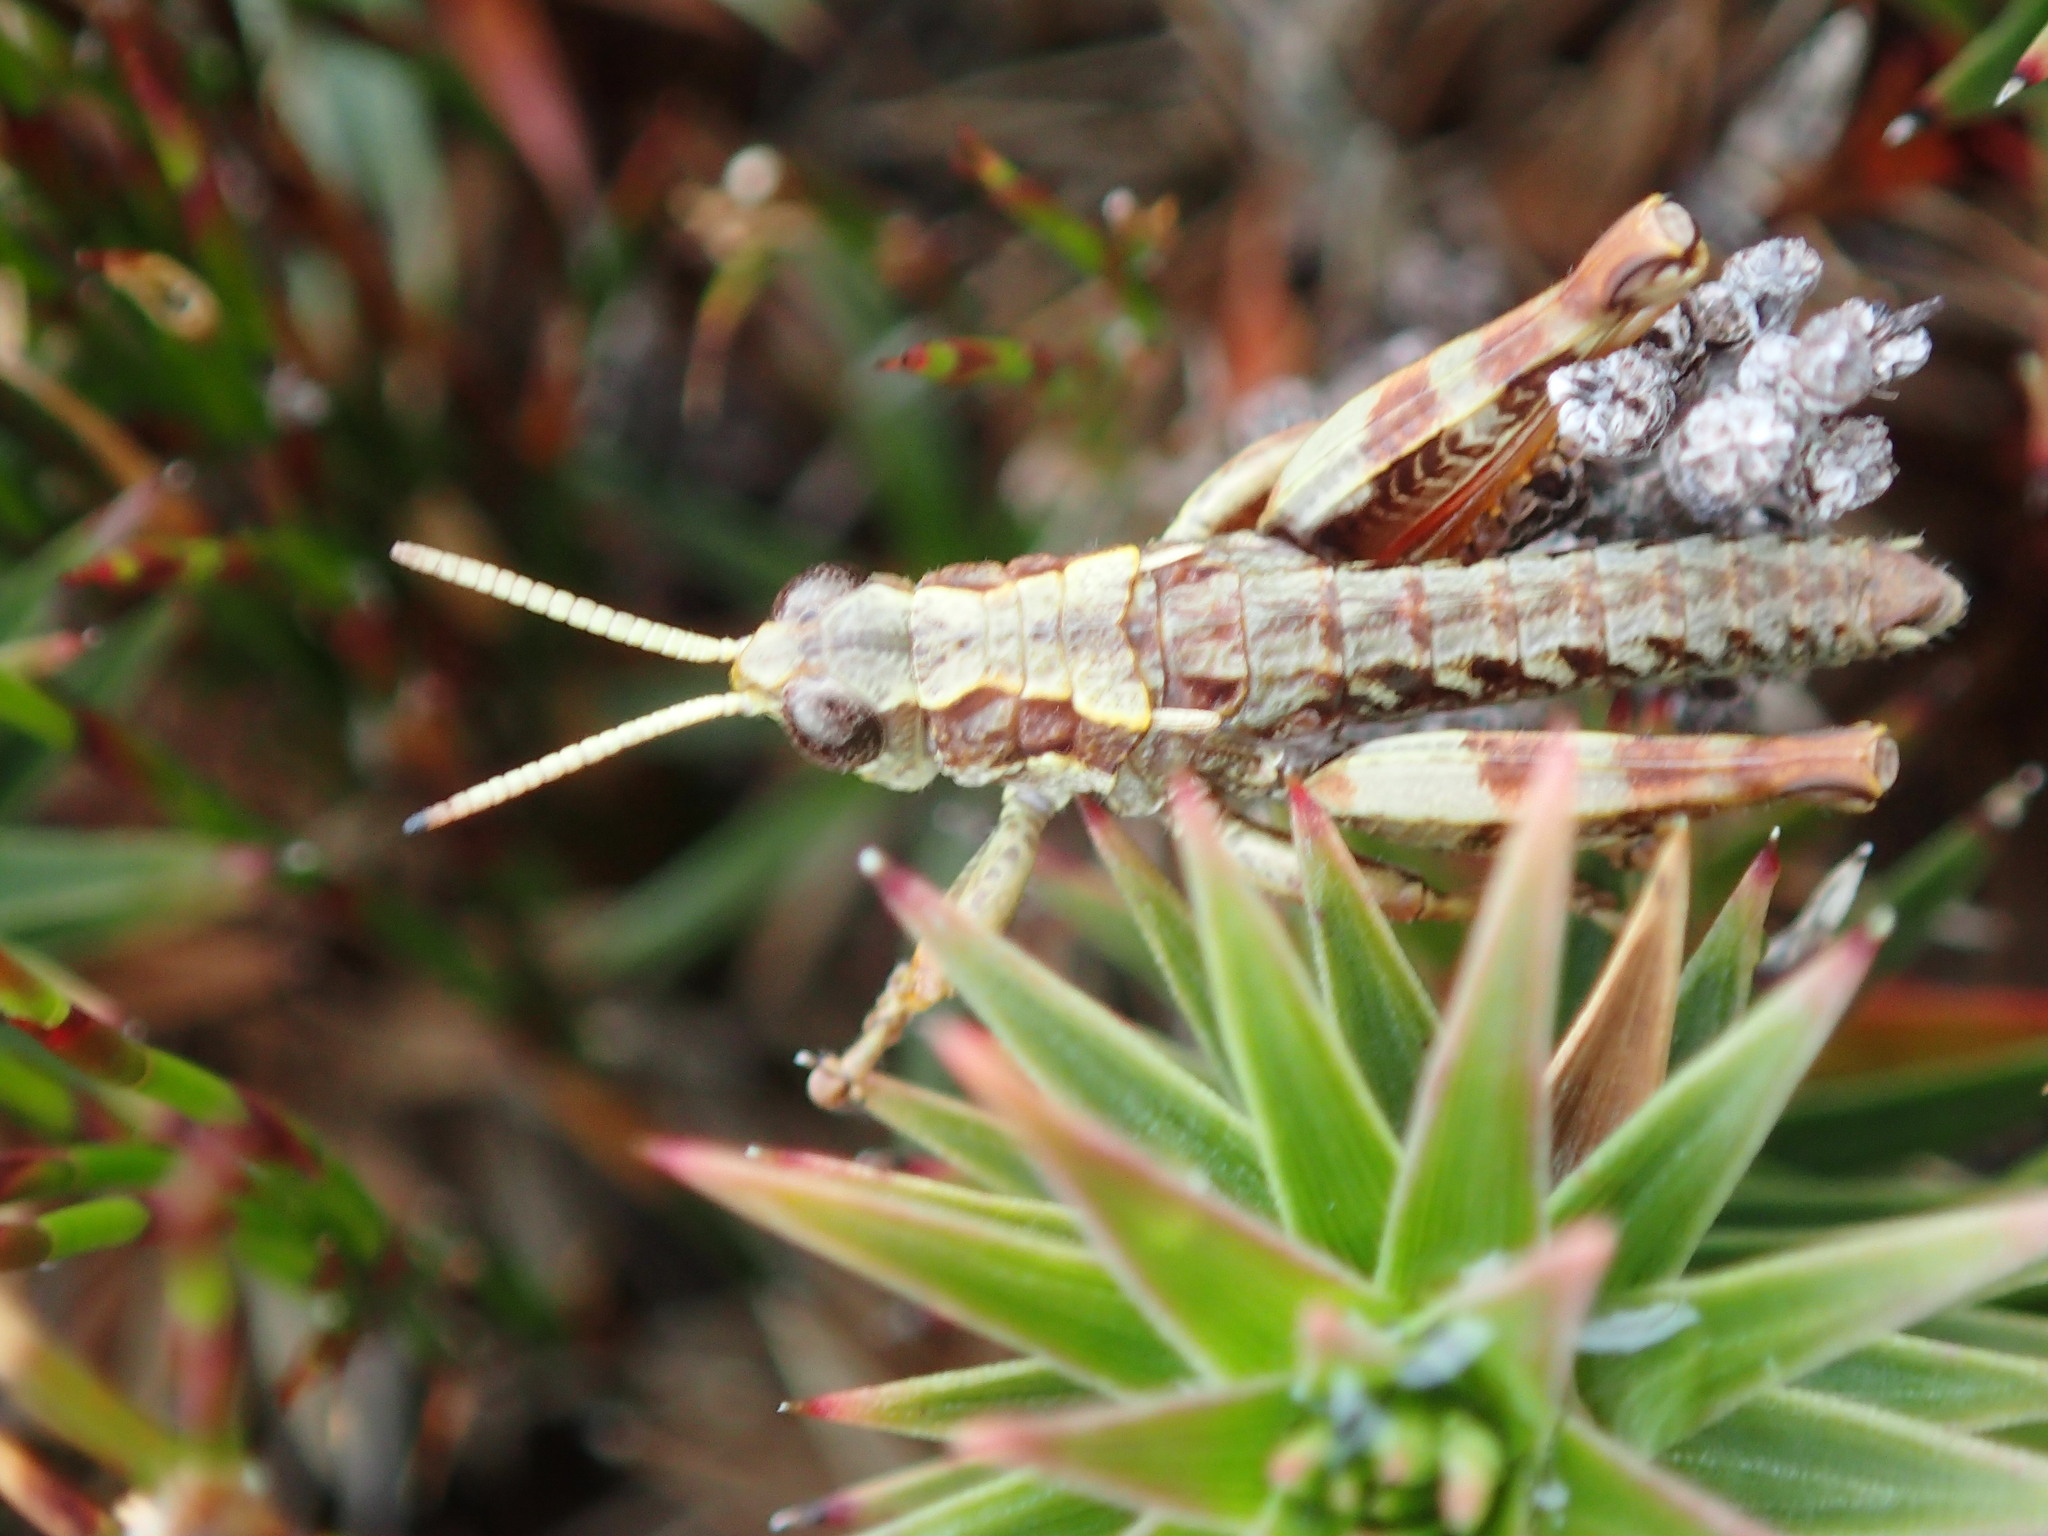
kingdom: Animalia
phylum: Arthropoda
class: Insecta
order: Orthoptera
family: Acrididae
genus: Tasmaniacris
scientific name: Tasmaniacris tasmaniensis
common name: Tasmanian grasshopper
